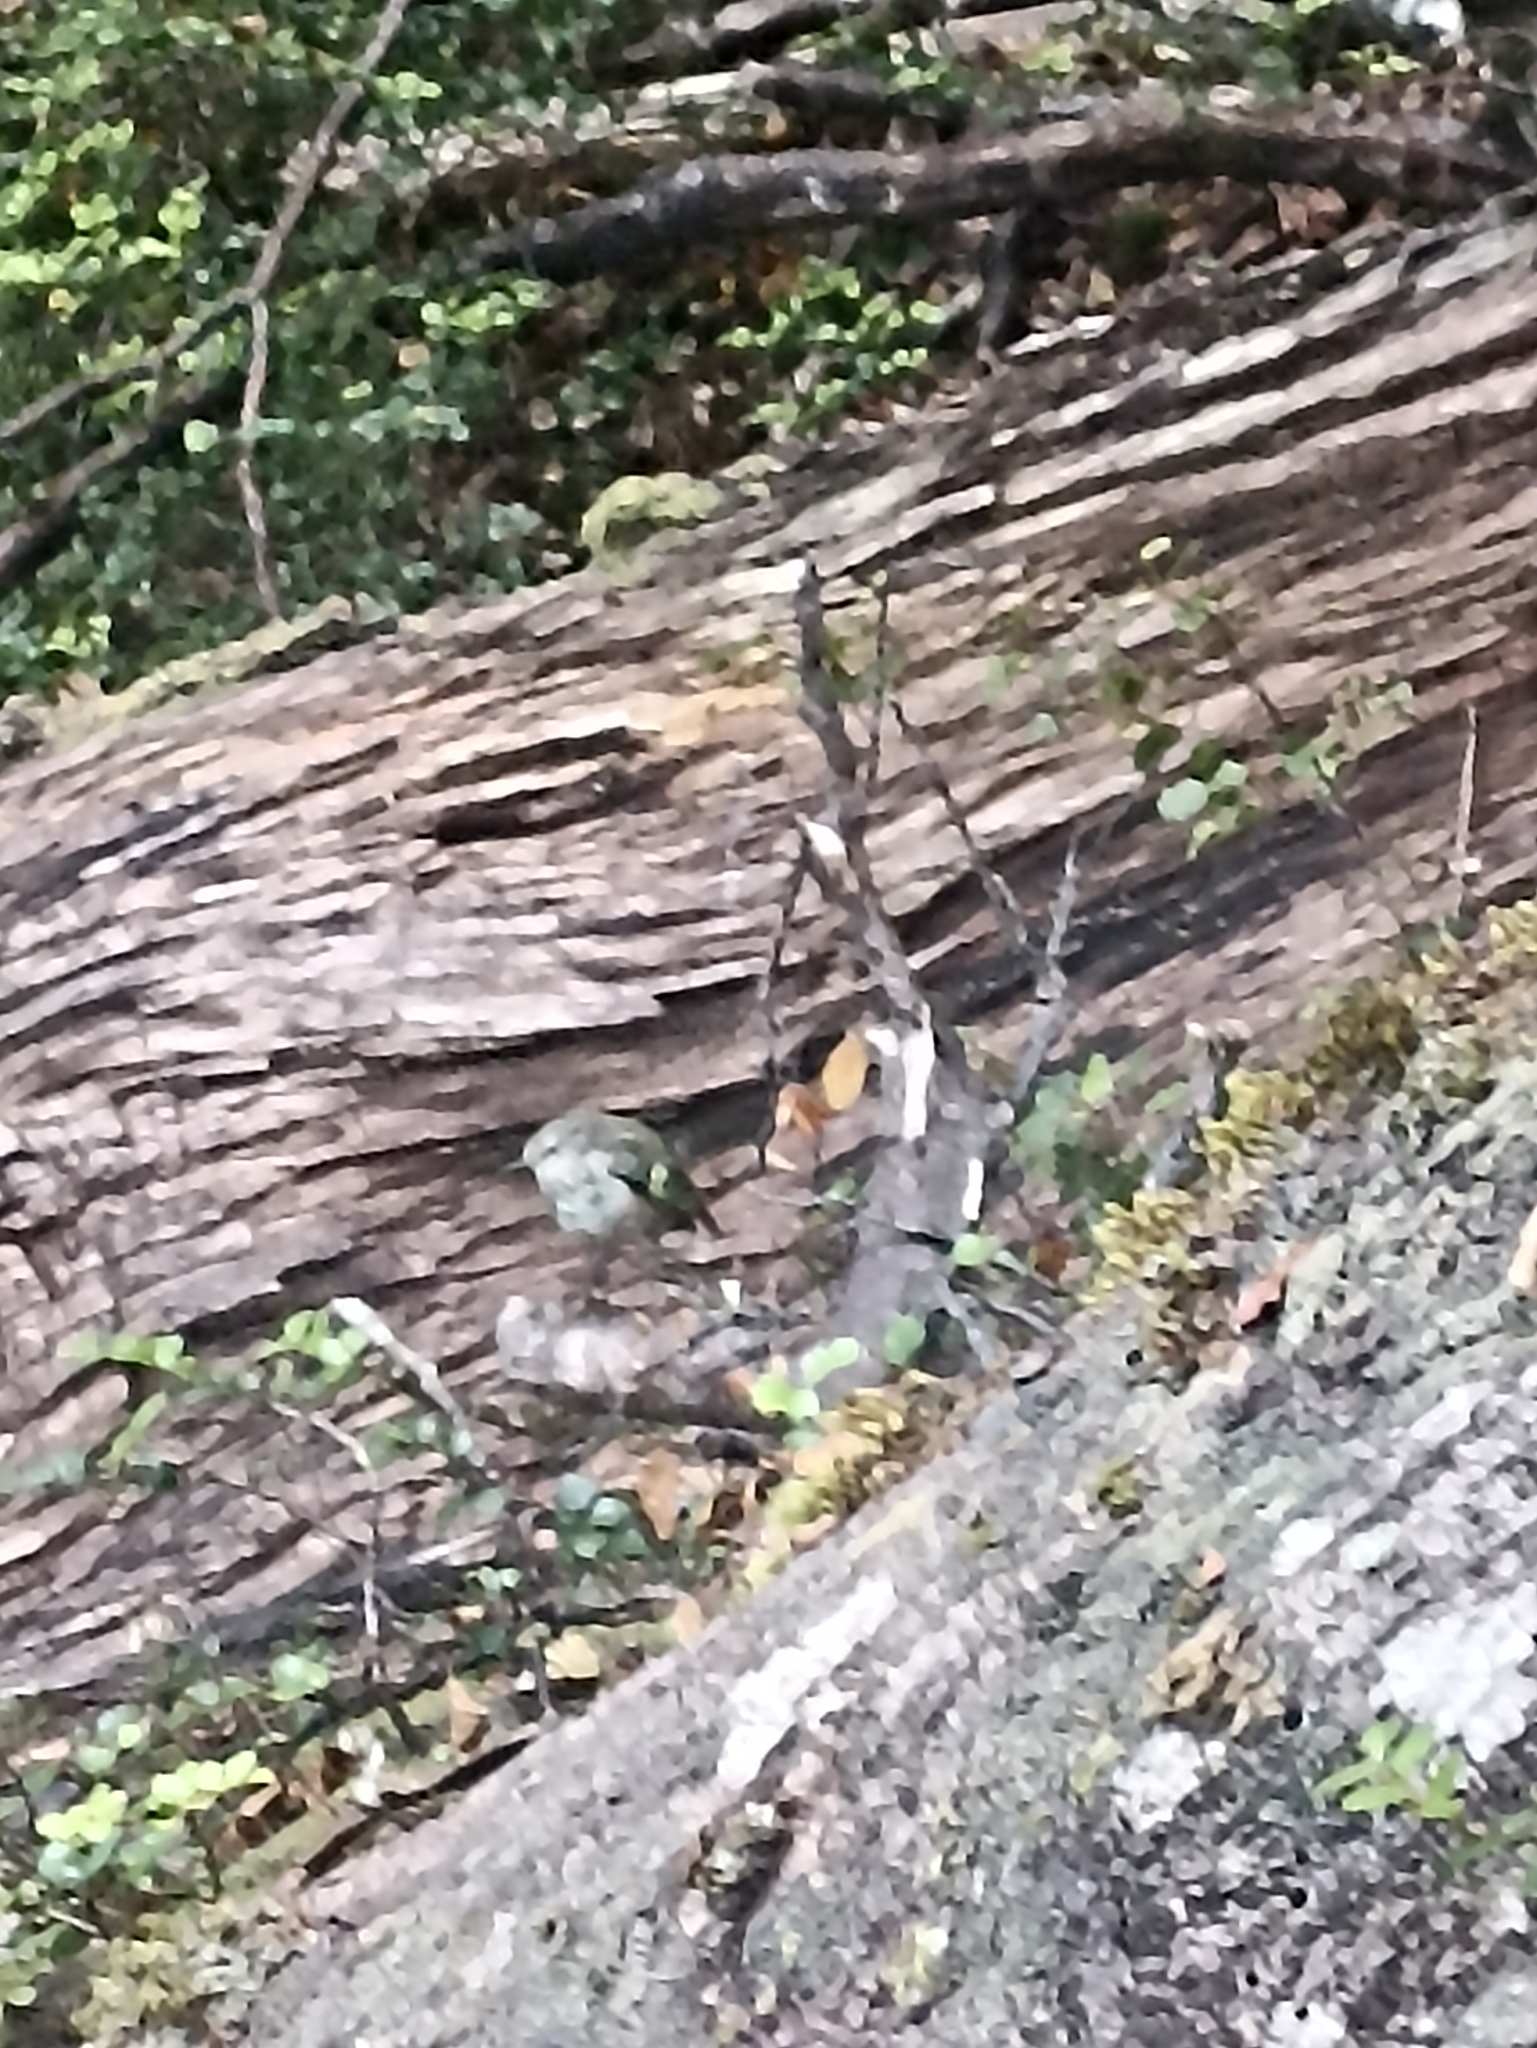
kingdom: Animalia
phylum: Chordata
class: Aves
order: Passeriformes
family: Acanthisittidae
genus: Acanthisitta
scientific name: Acanthisitta chloris
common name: Rifleman
